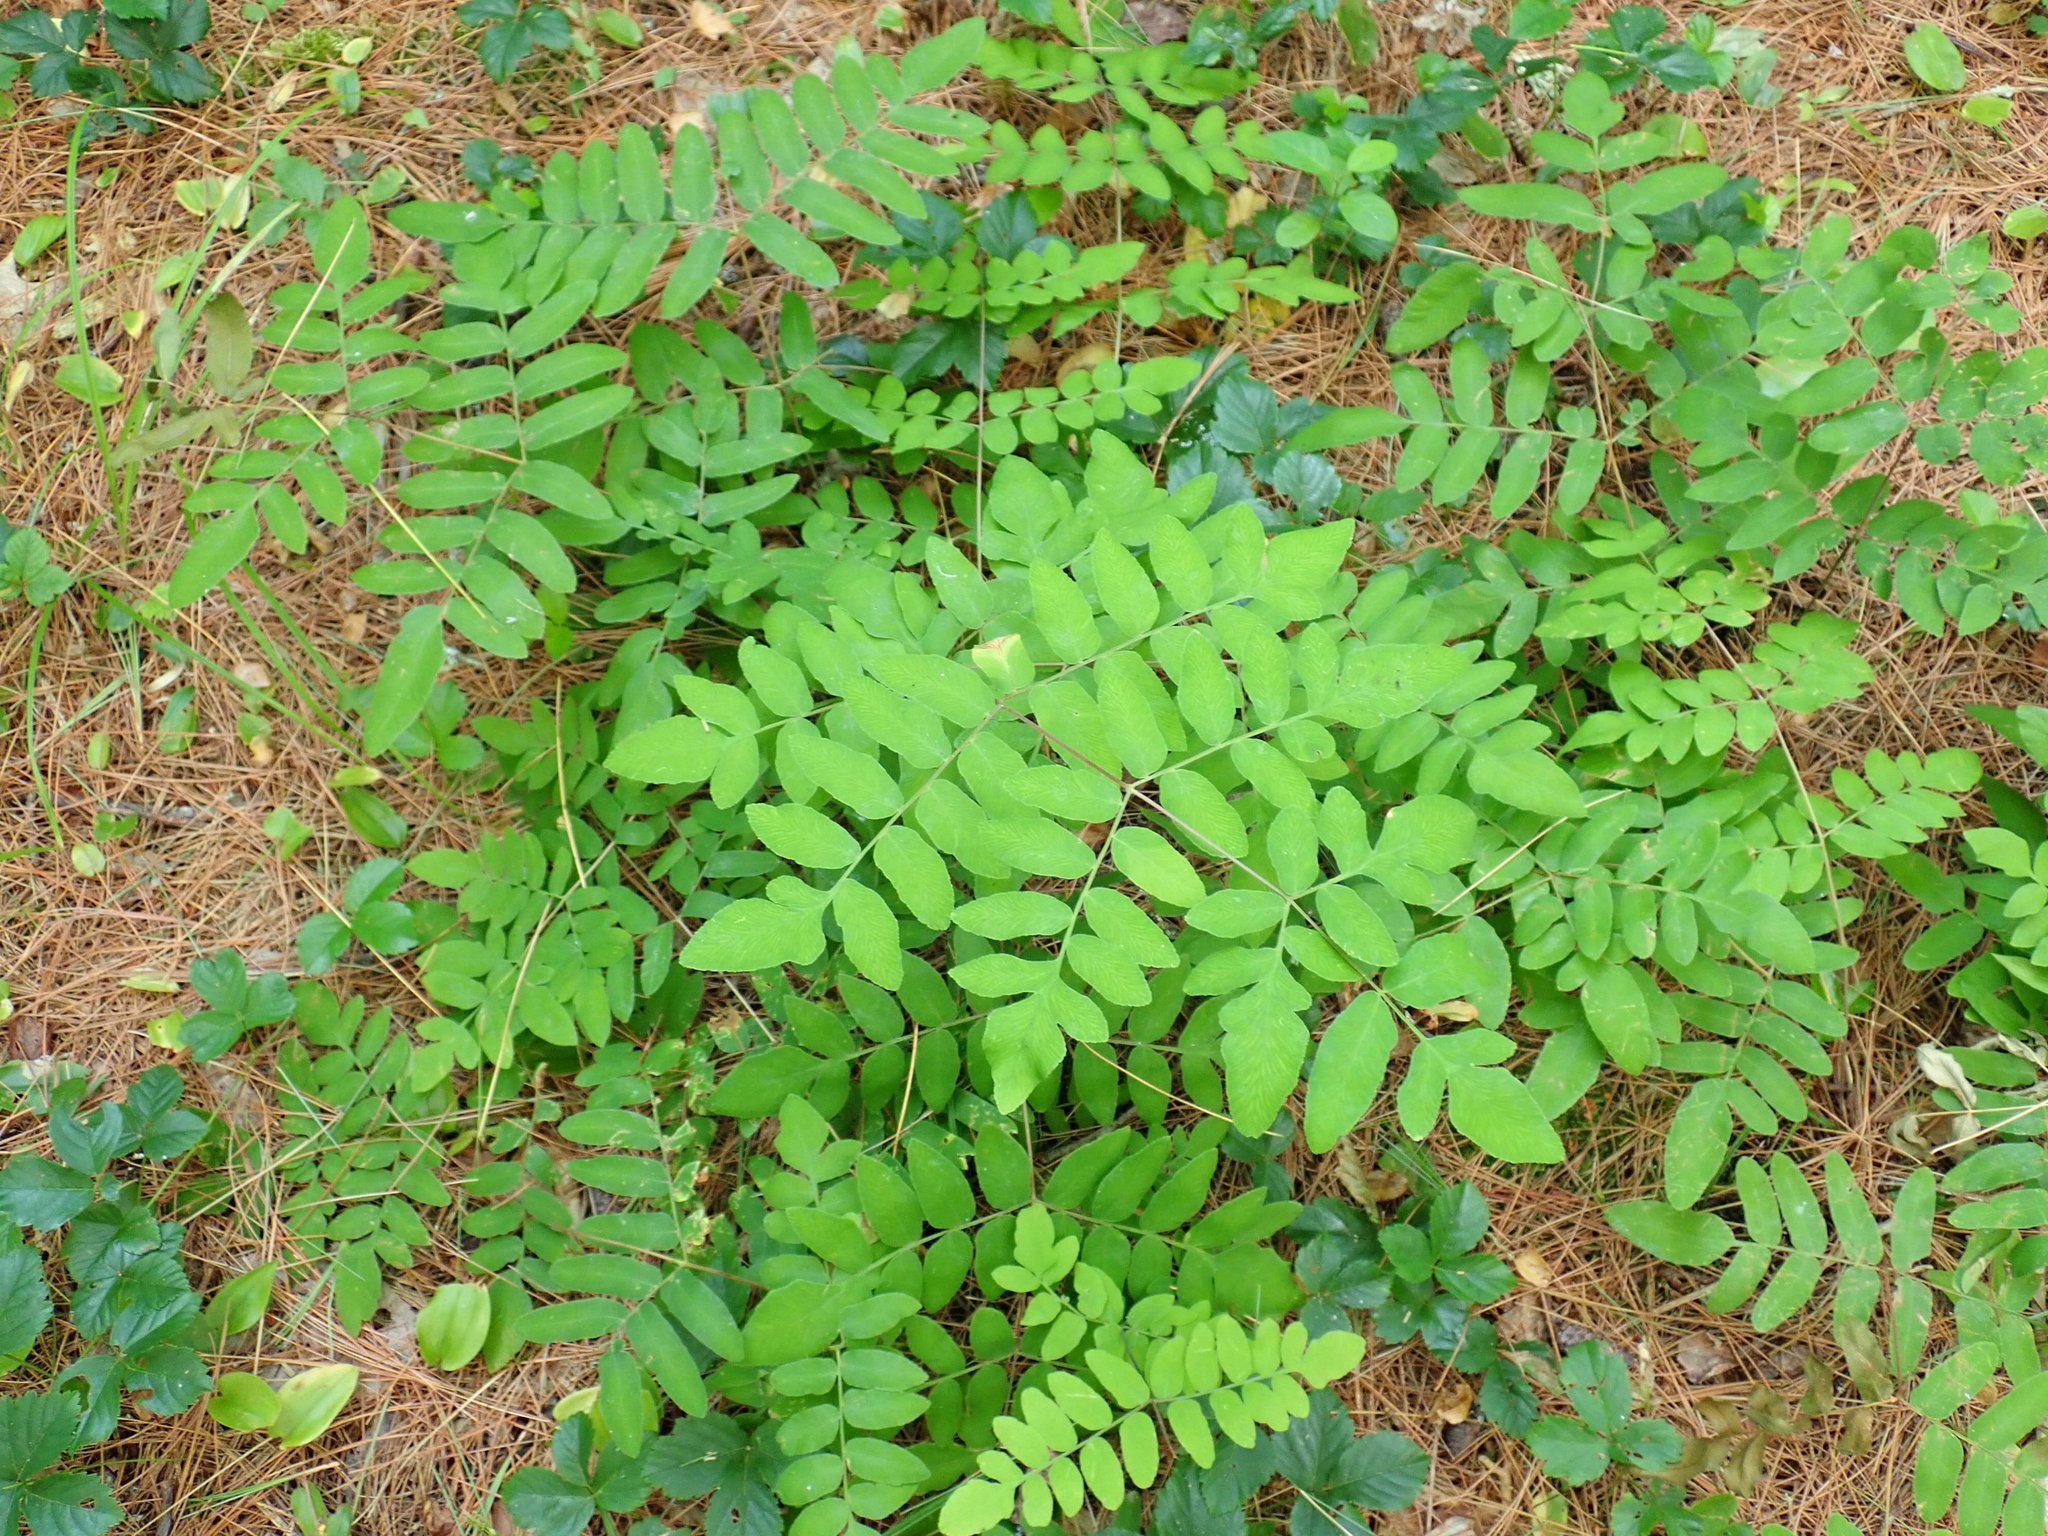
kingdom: Plantae
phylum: Tracheophyta
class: Polypodiopsida
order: Osmundales
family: Osmundaceae
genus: Osmunda
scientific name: Osmunda spectabilis
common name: American royal fern
